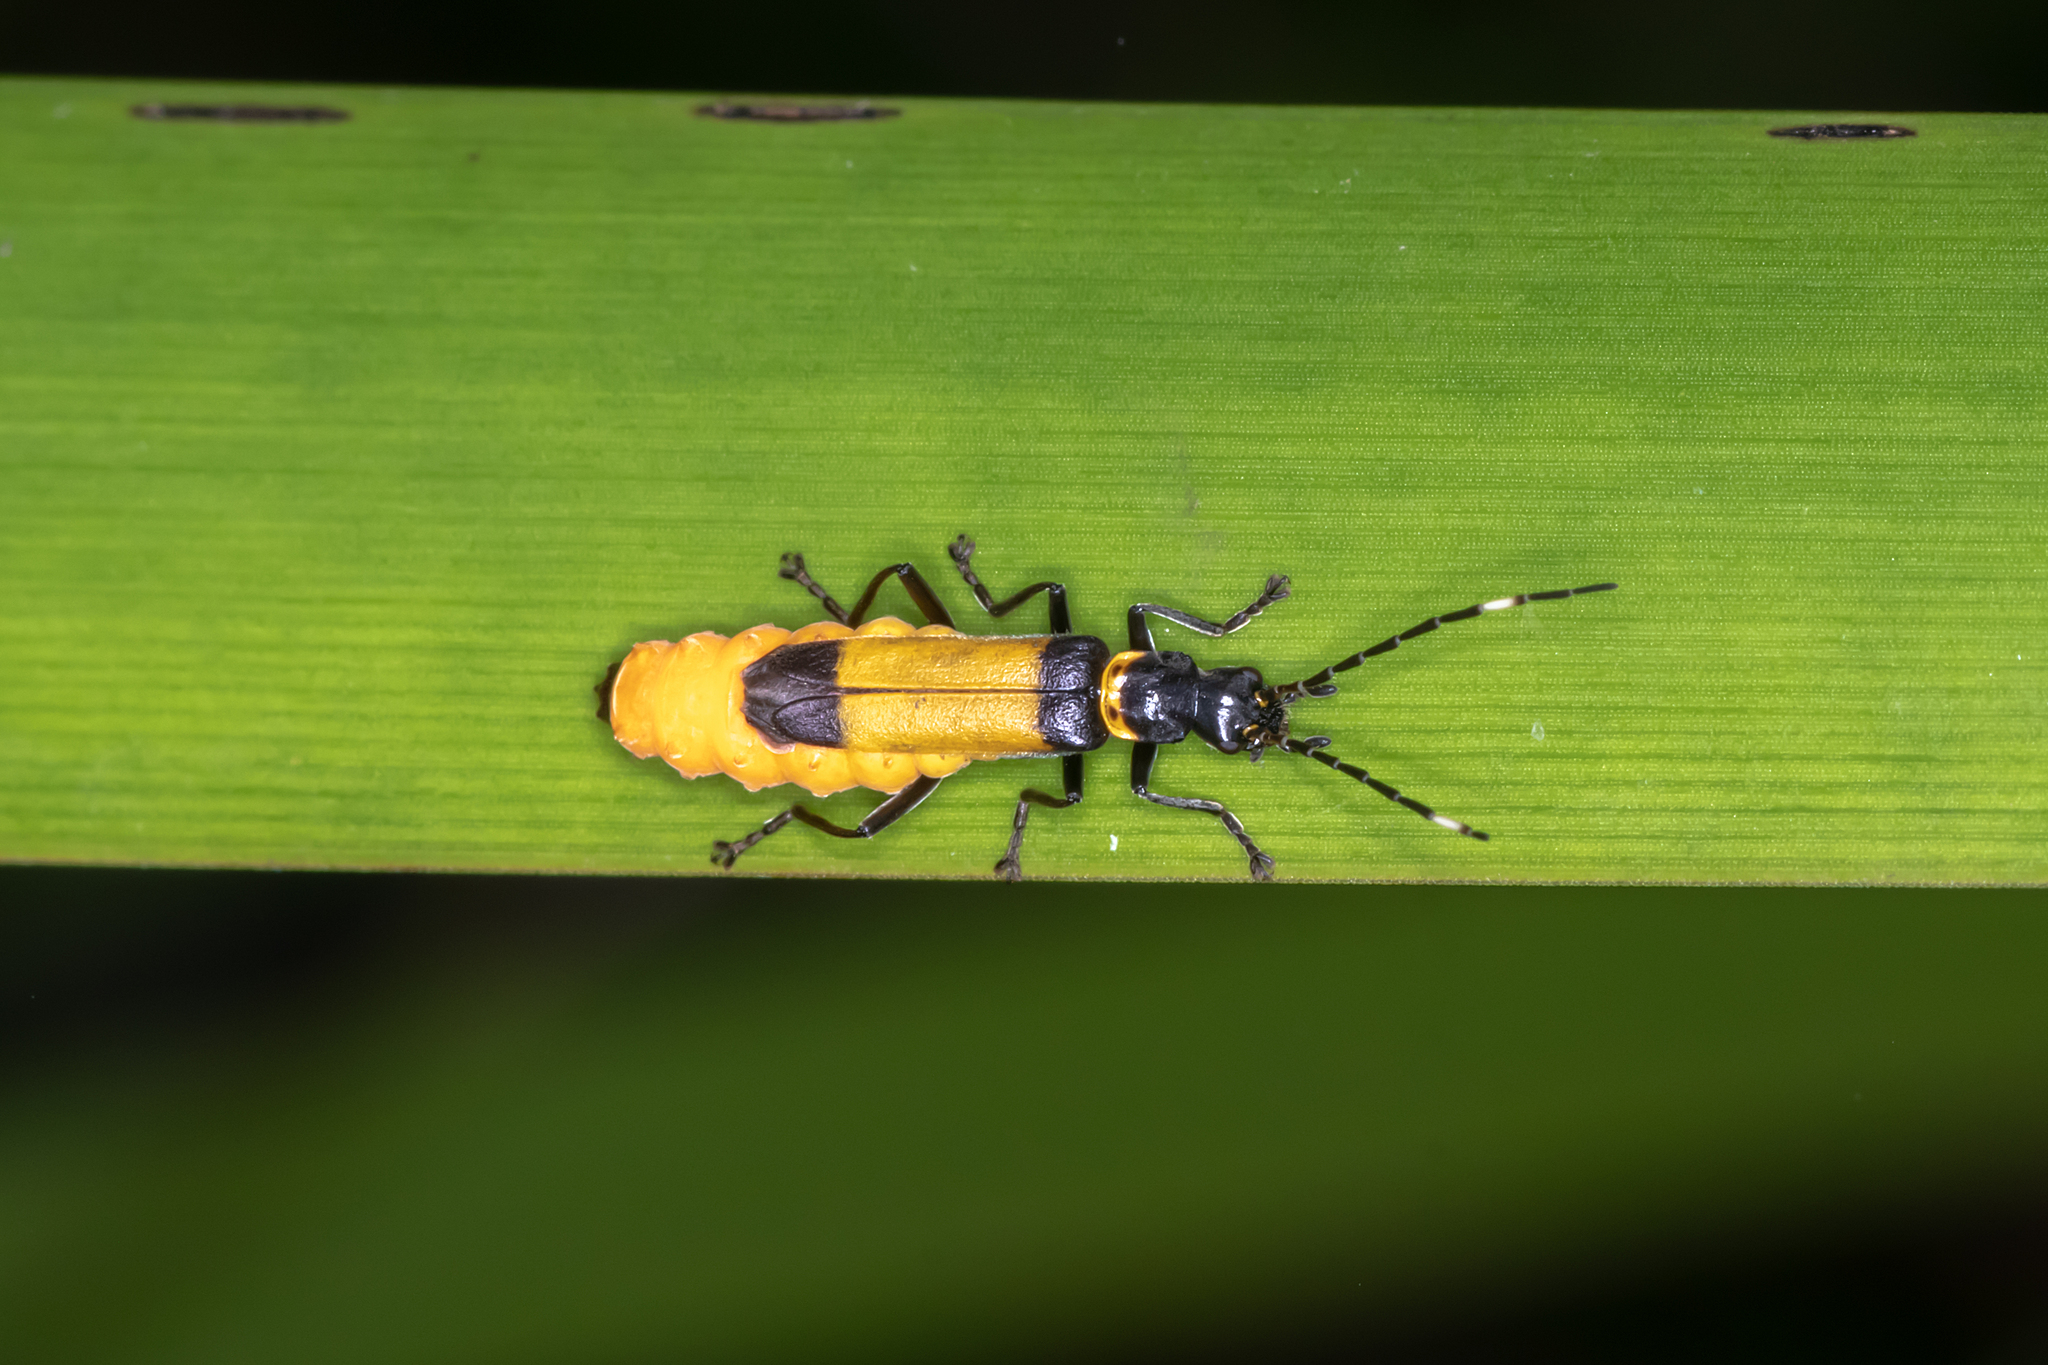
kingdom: Animalia
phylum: Arthropoda
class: Insecta
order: Coleoptera
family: Cantharidae
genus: Chauliognathus
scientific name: Chauliognathus
